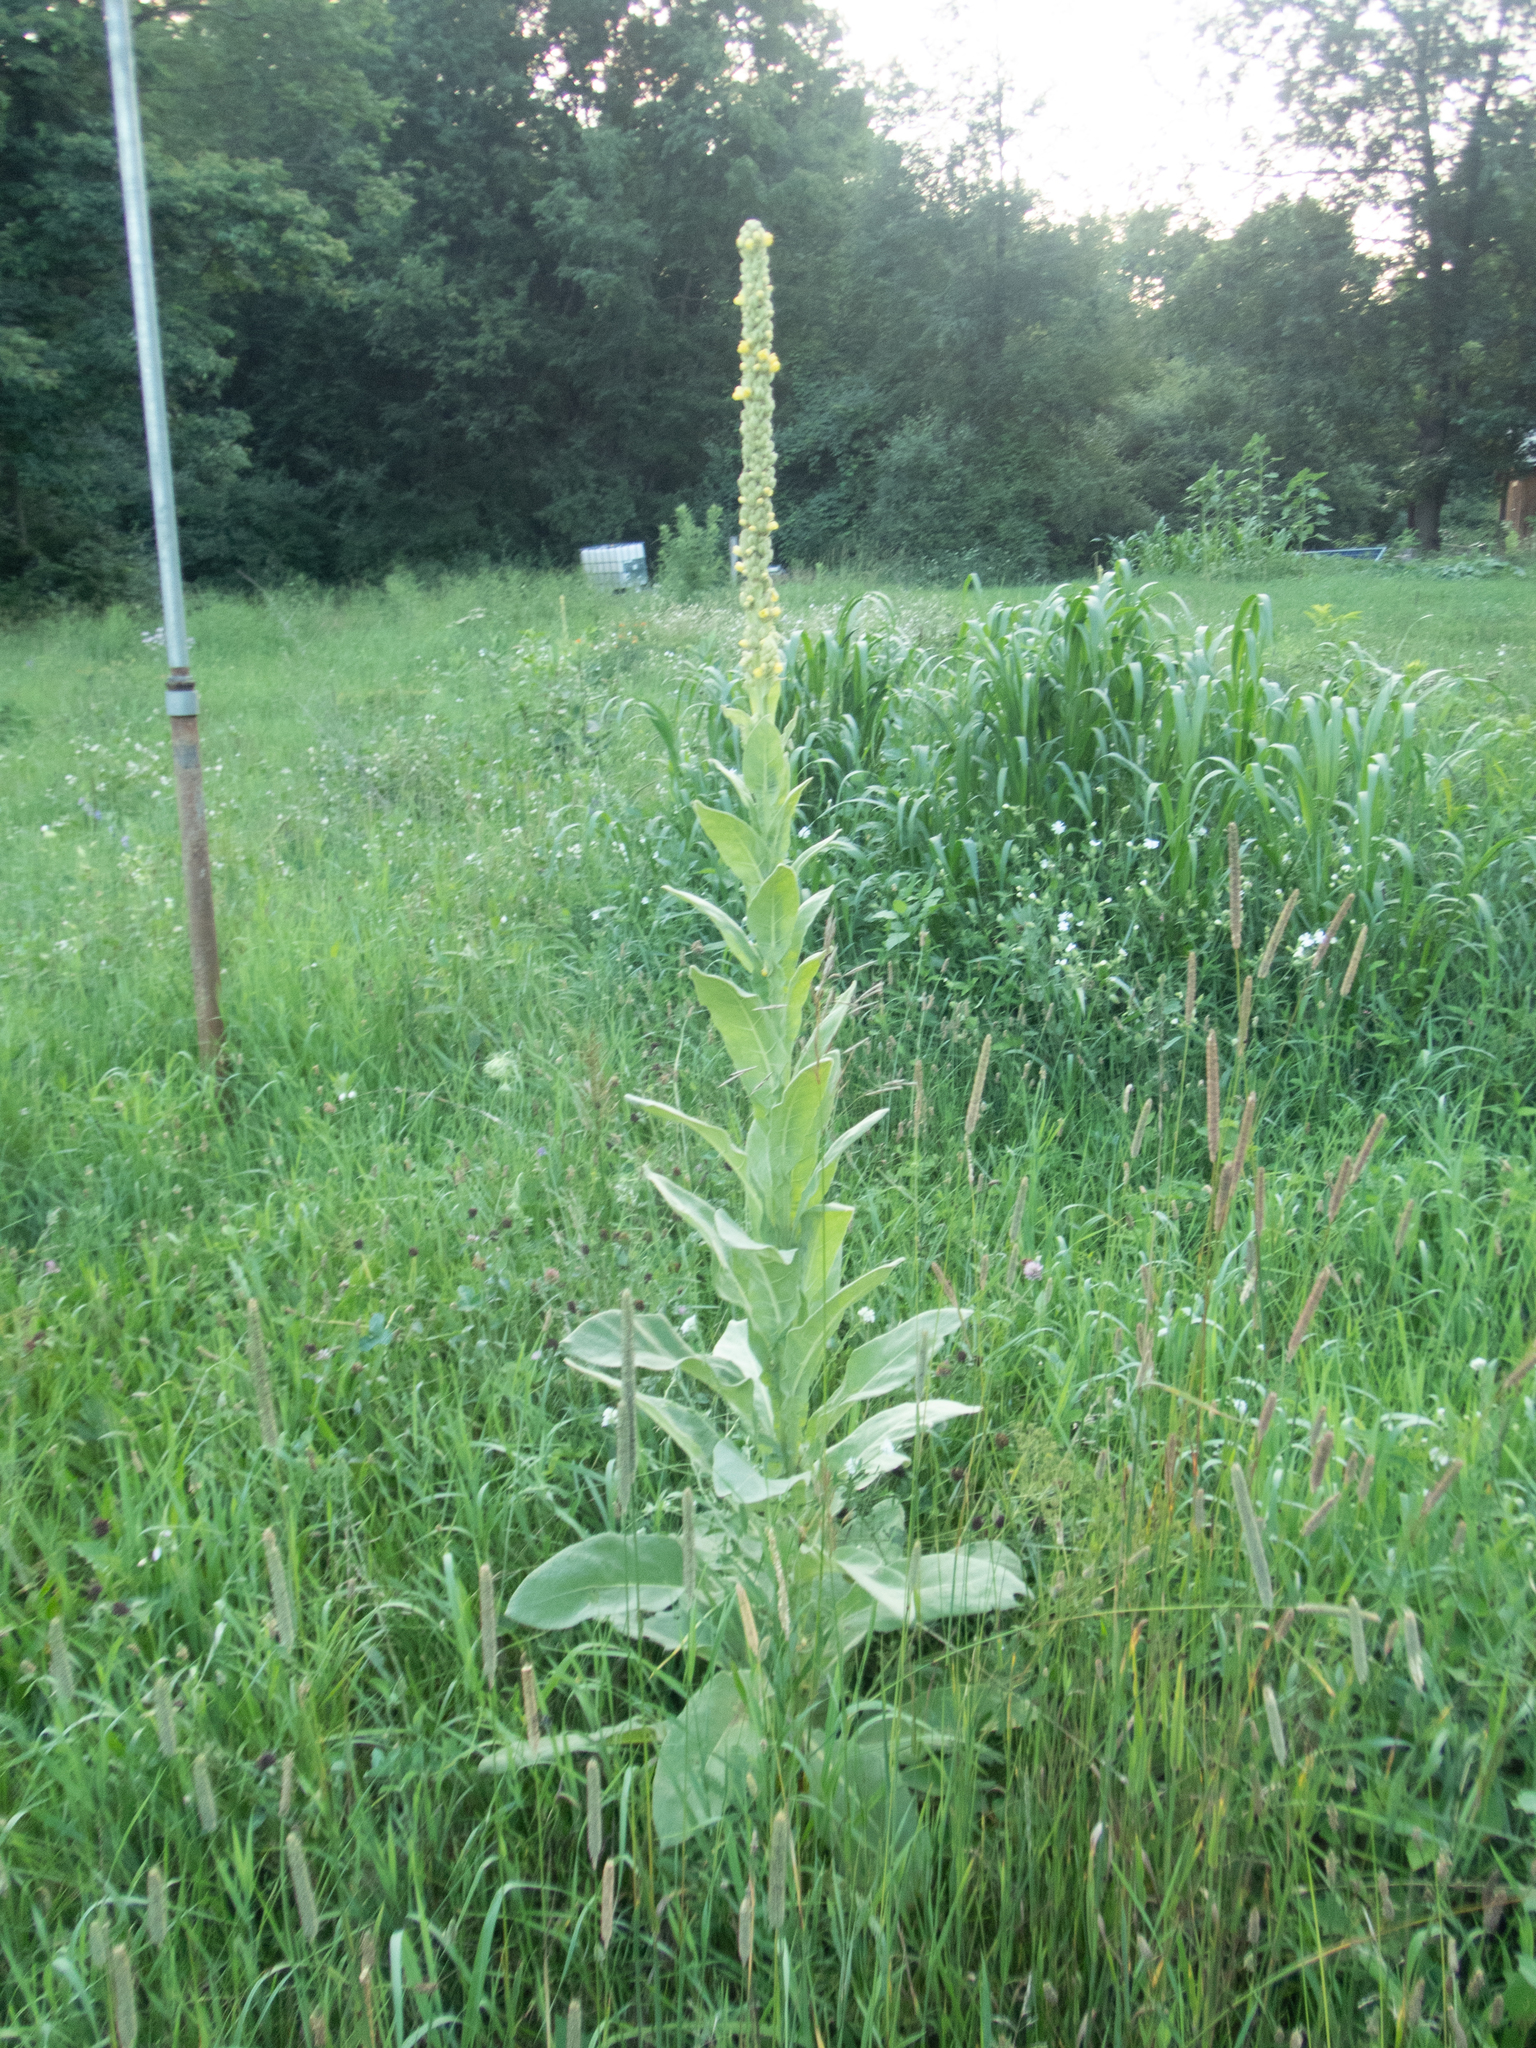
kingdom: Plantae
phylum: Tracheophyta
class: Magnoliopsida
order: Lamiales
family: Scrophulariaceae
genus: Verbascum
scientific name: Verbascum thapsus
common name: Common mullein
